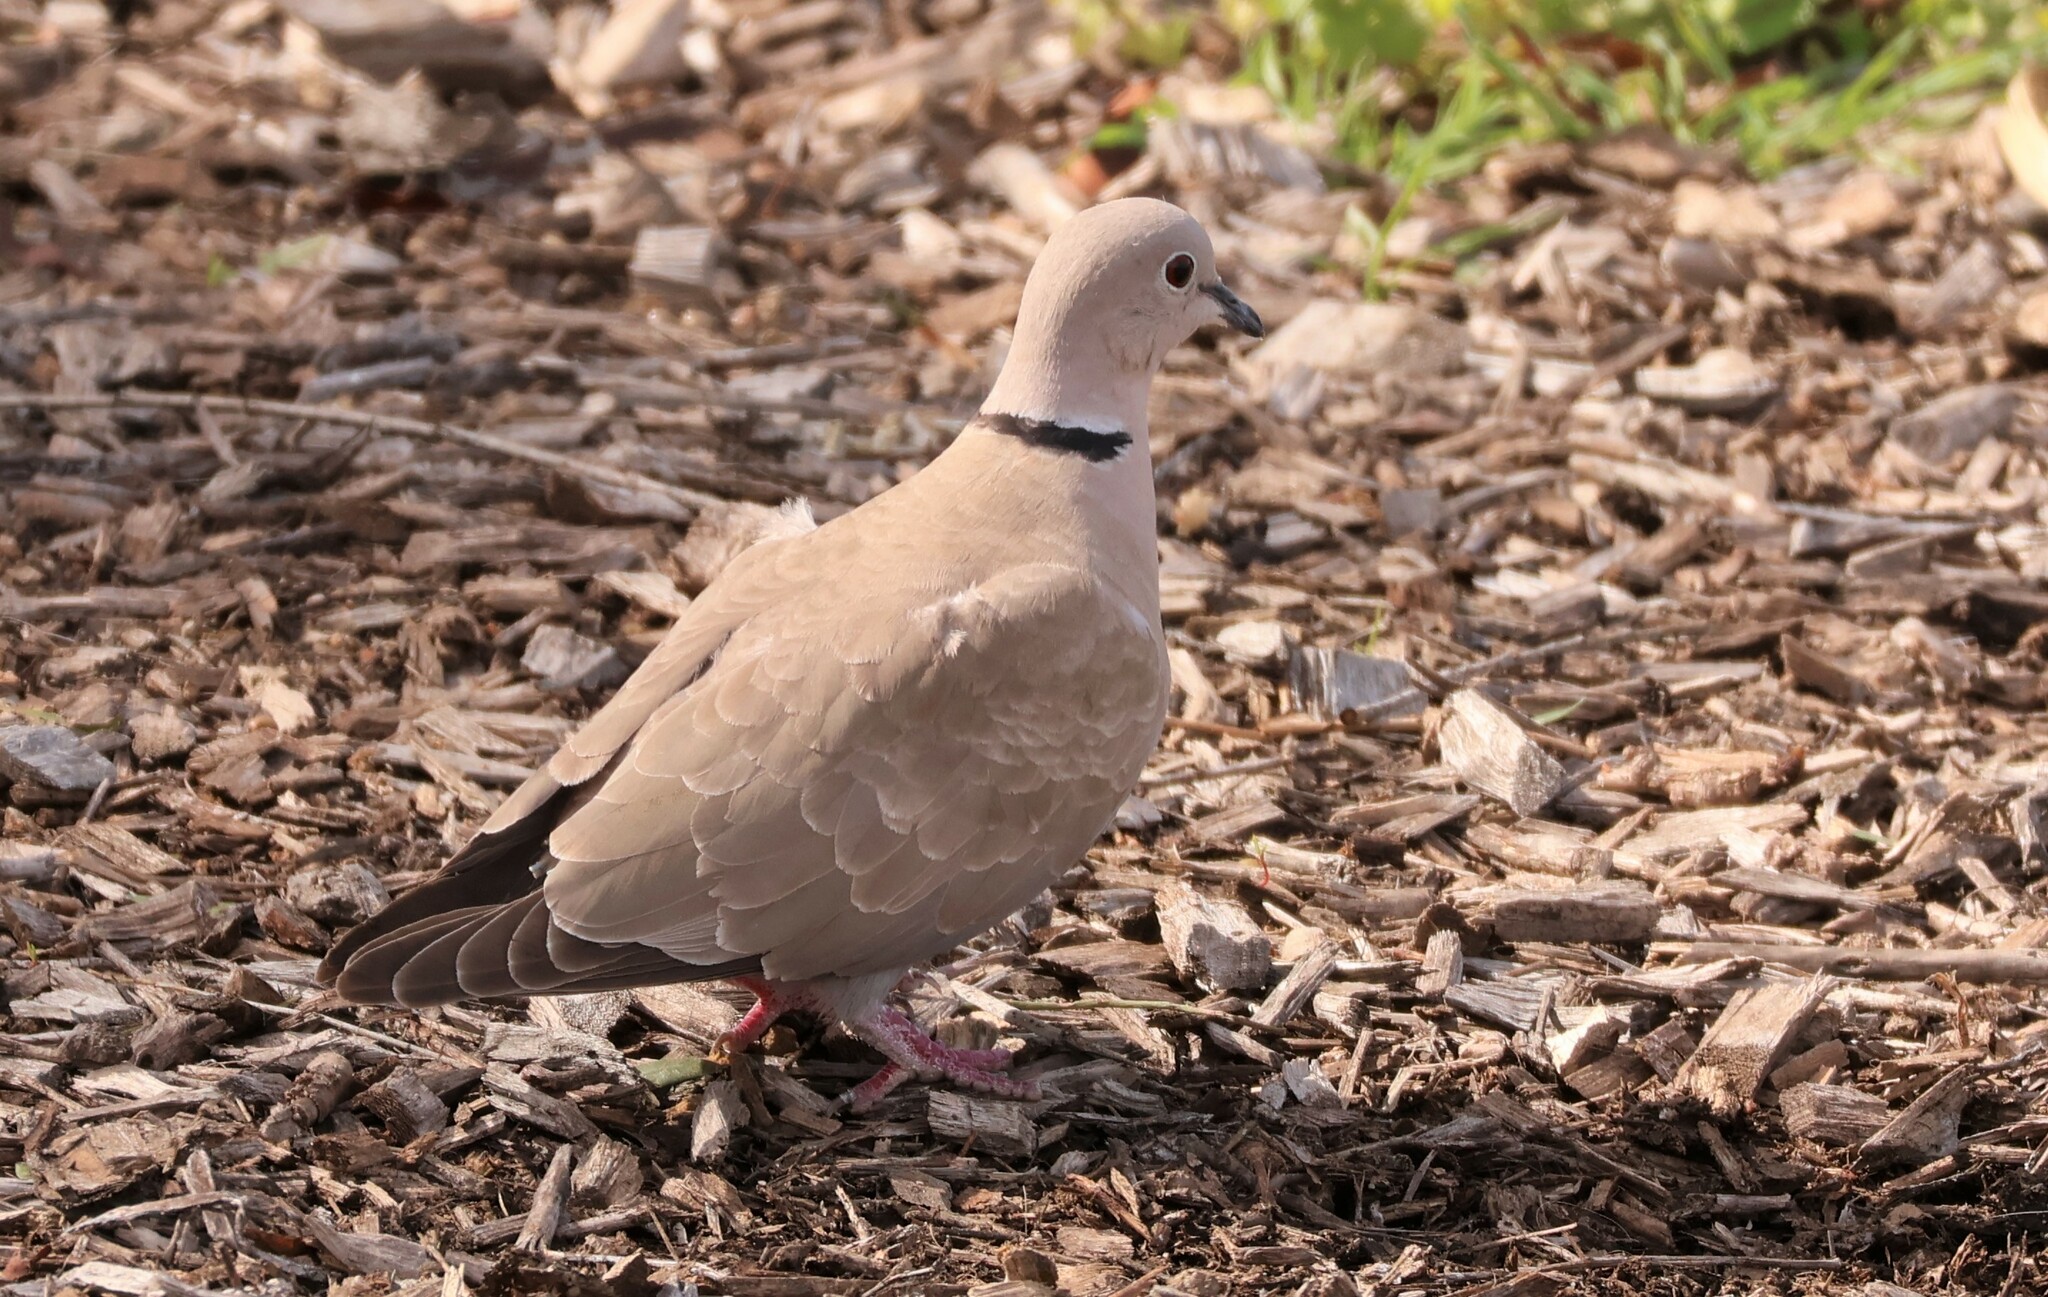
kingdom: Animalia
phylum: Chordata
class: Aves
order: Columbiformes
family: Columbidae
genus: Streptopelia
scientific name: Streptopelia decaocto
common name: Eurasian collared dove
